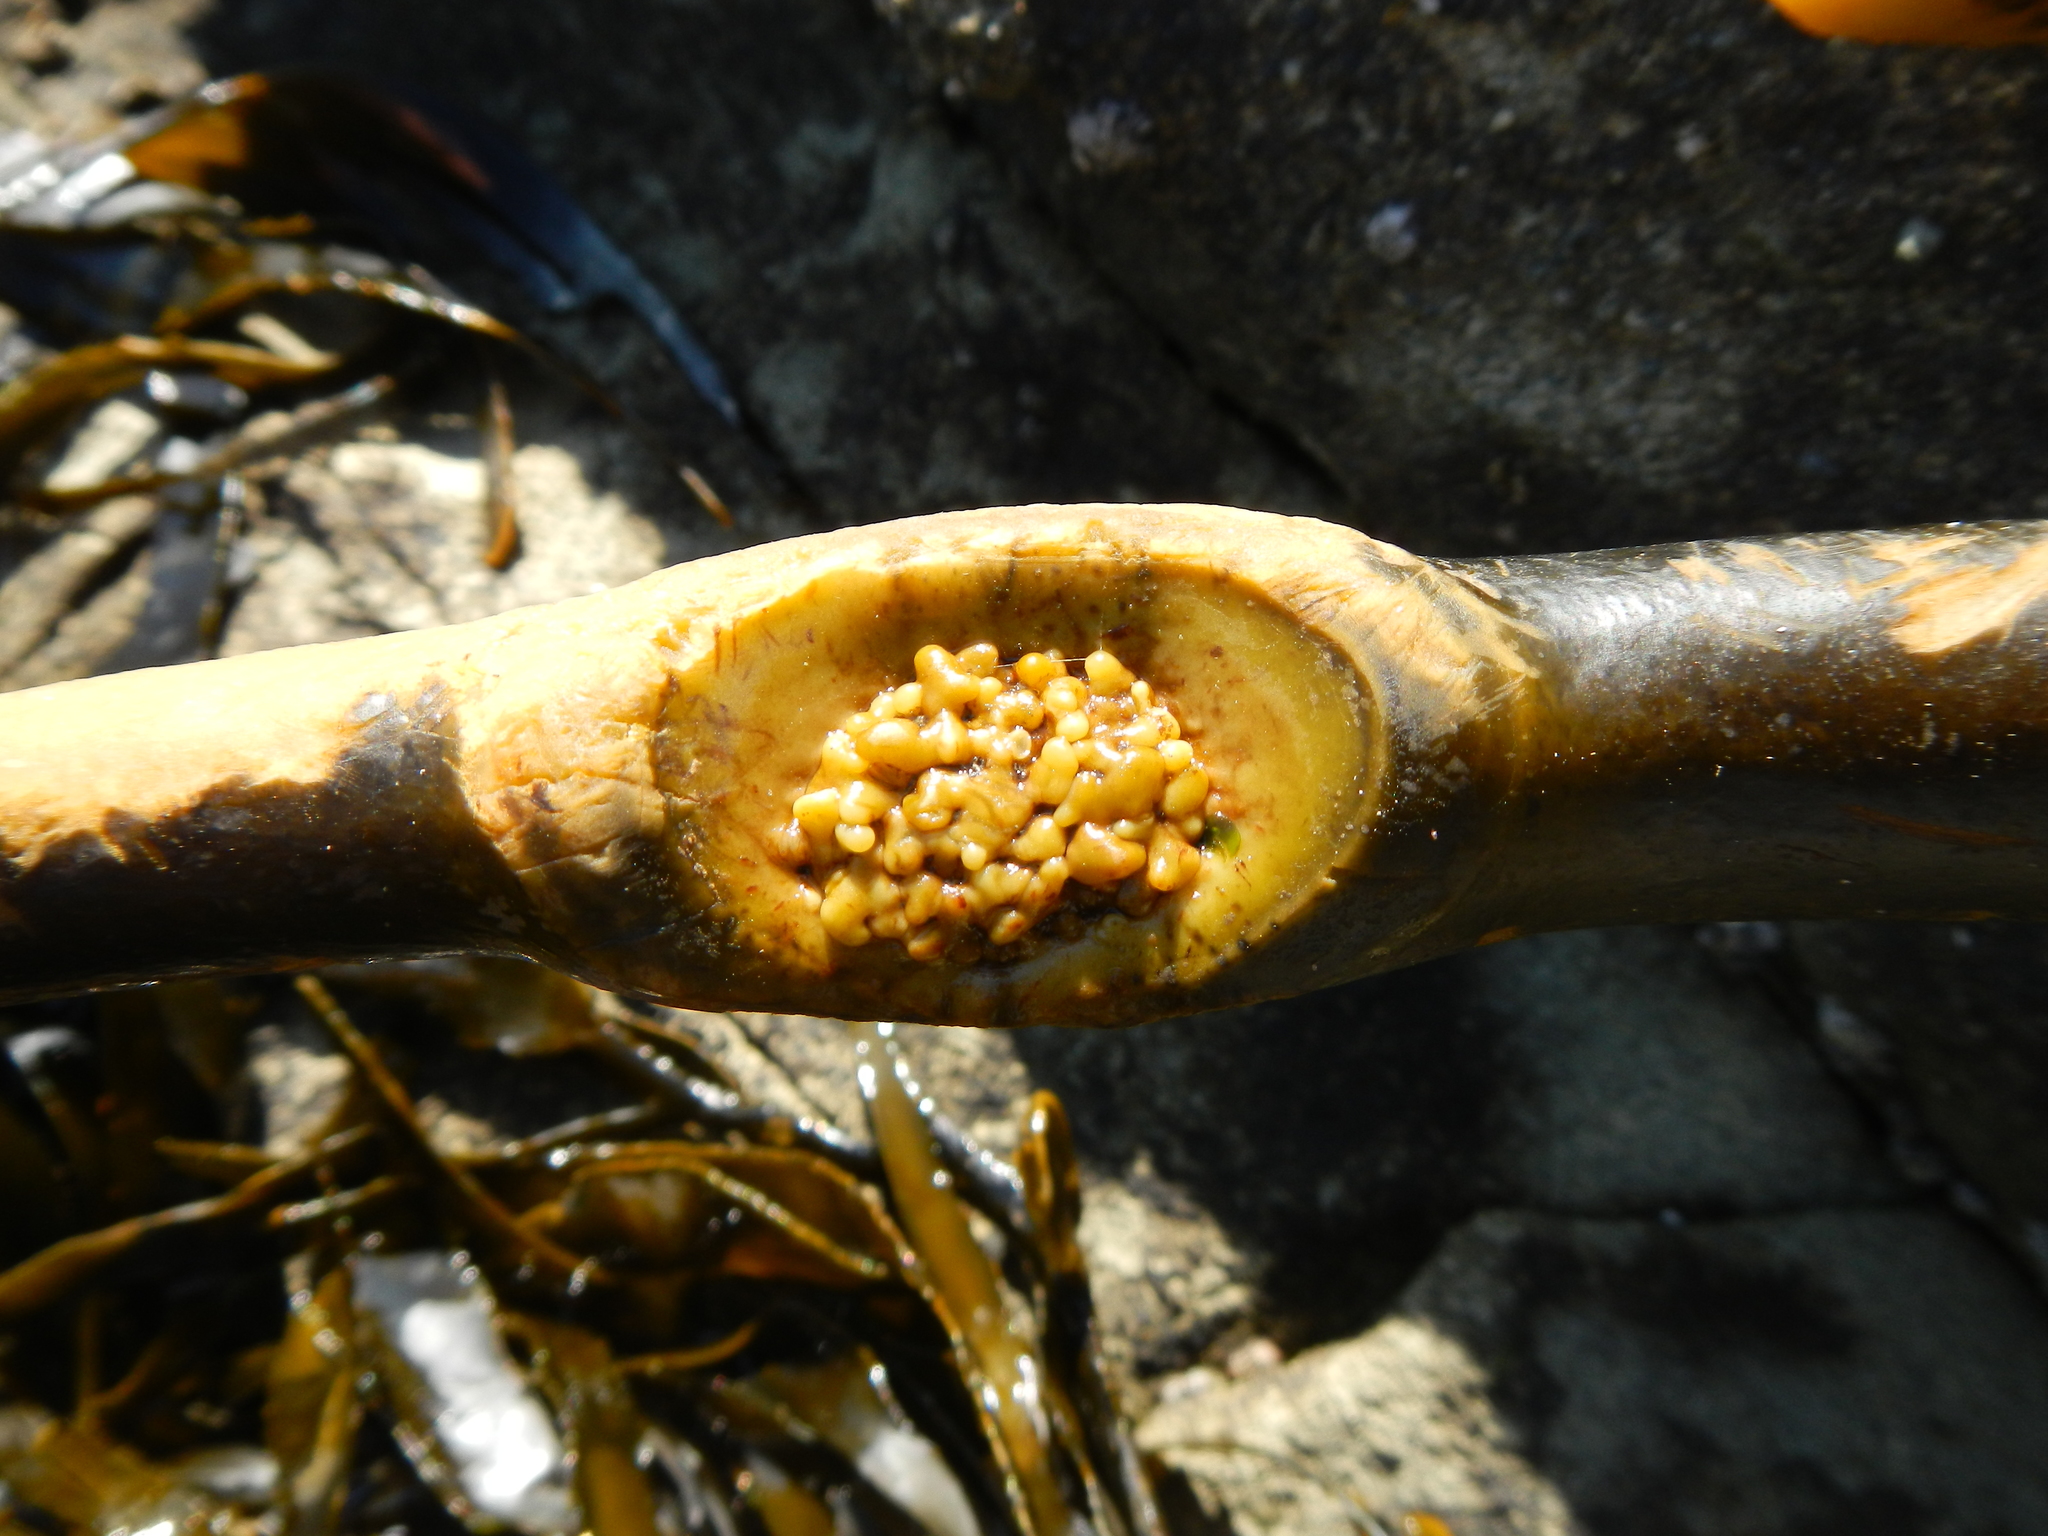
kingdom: Chromista
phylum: Ochrophyta
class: Phaeophyceae
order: Laminariales
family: Lessoniaceae
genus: Lessonia
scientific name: Lessonia spicata
